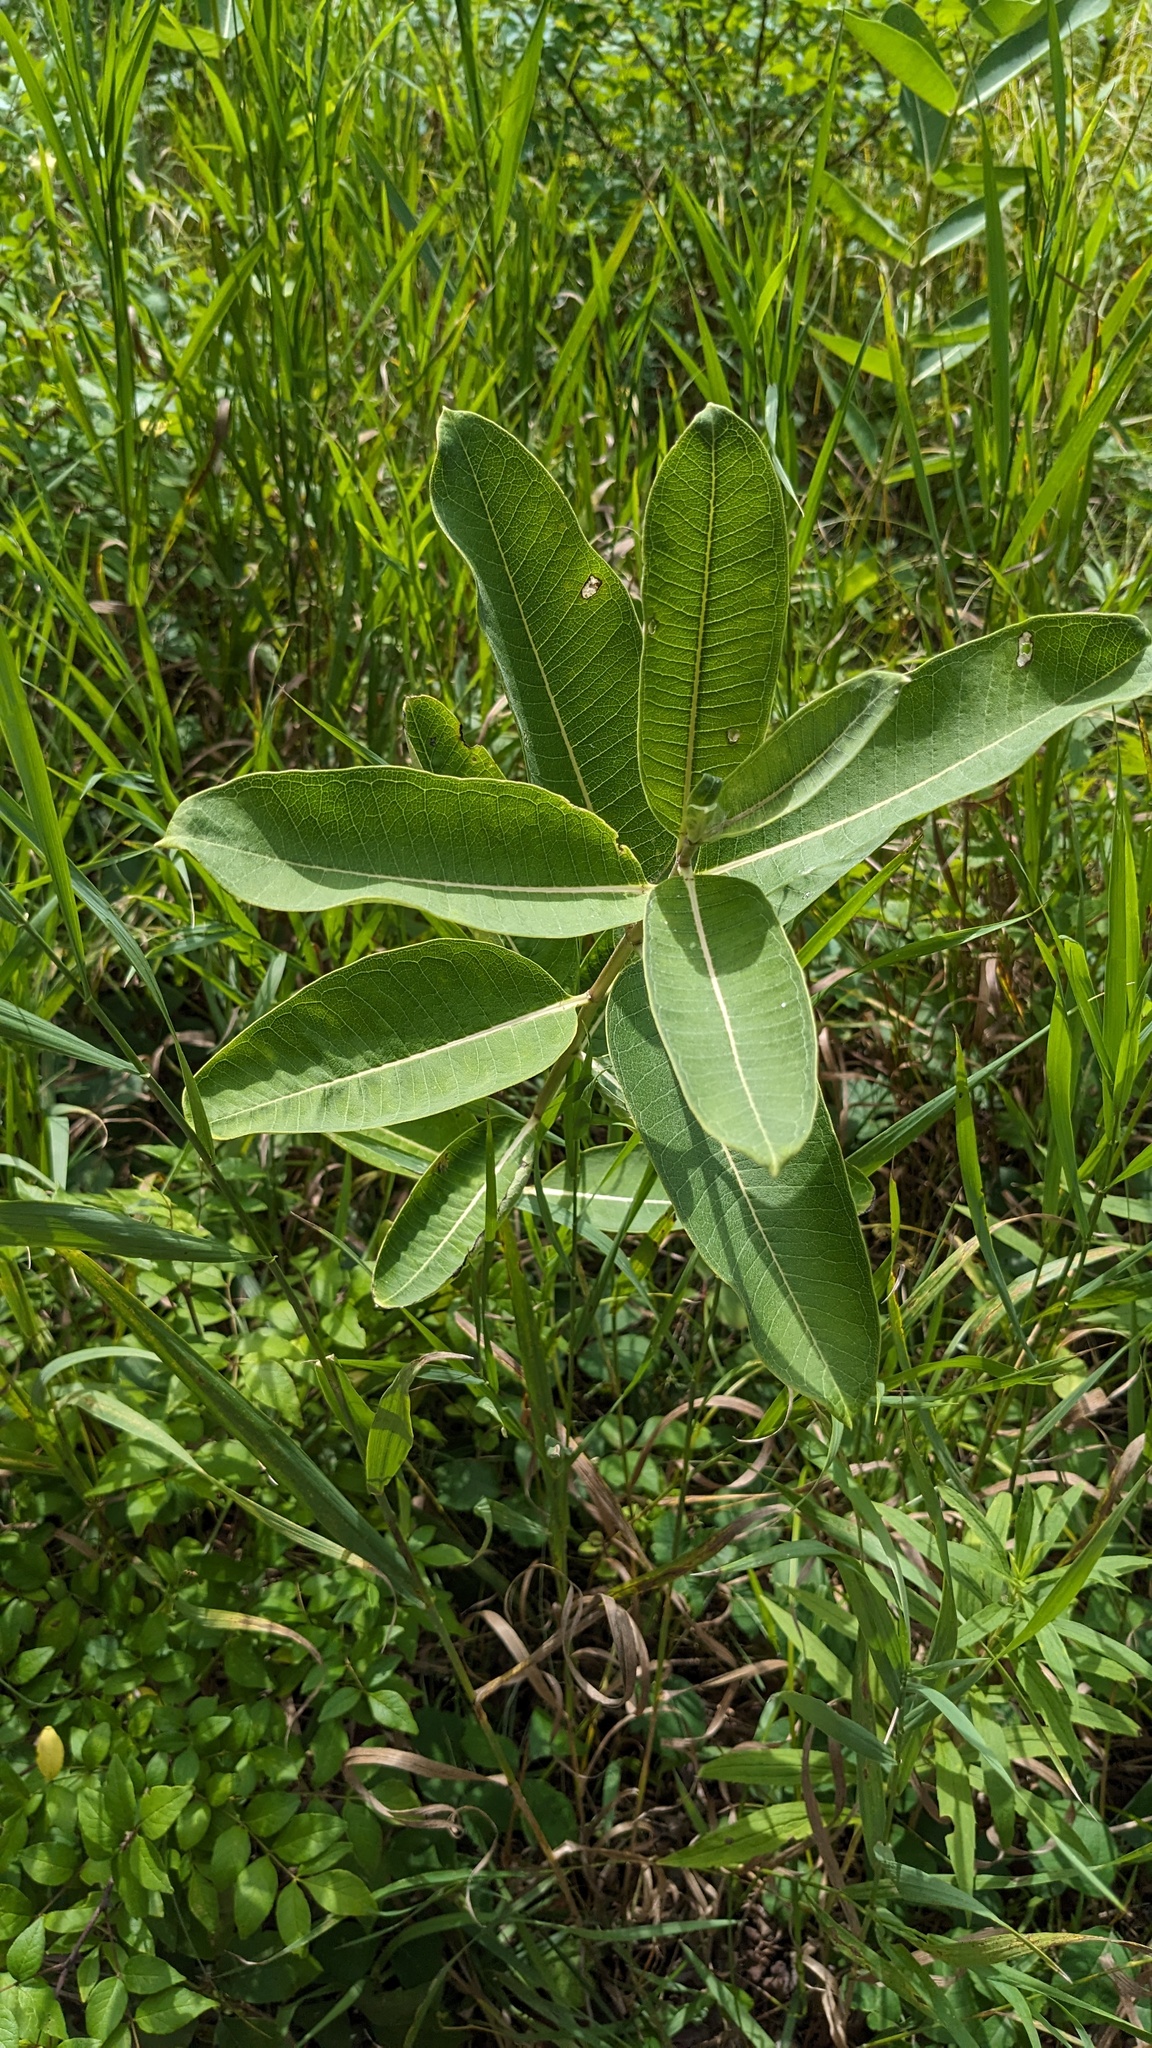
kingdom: Plantae
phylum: Tracheophyta
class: Magnoliopsida
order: Gentianales
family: Apocynaceae
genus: Asclepias
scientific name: Asclepias syriaca
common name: Common milkweed
